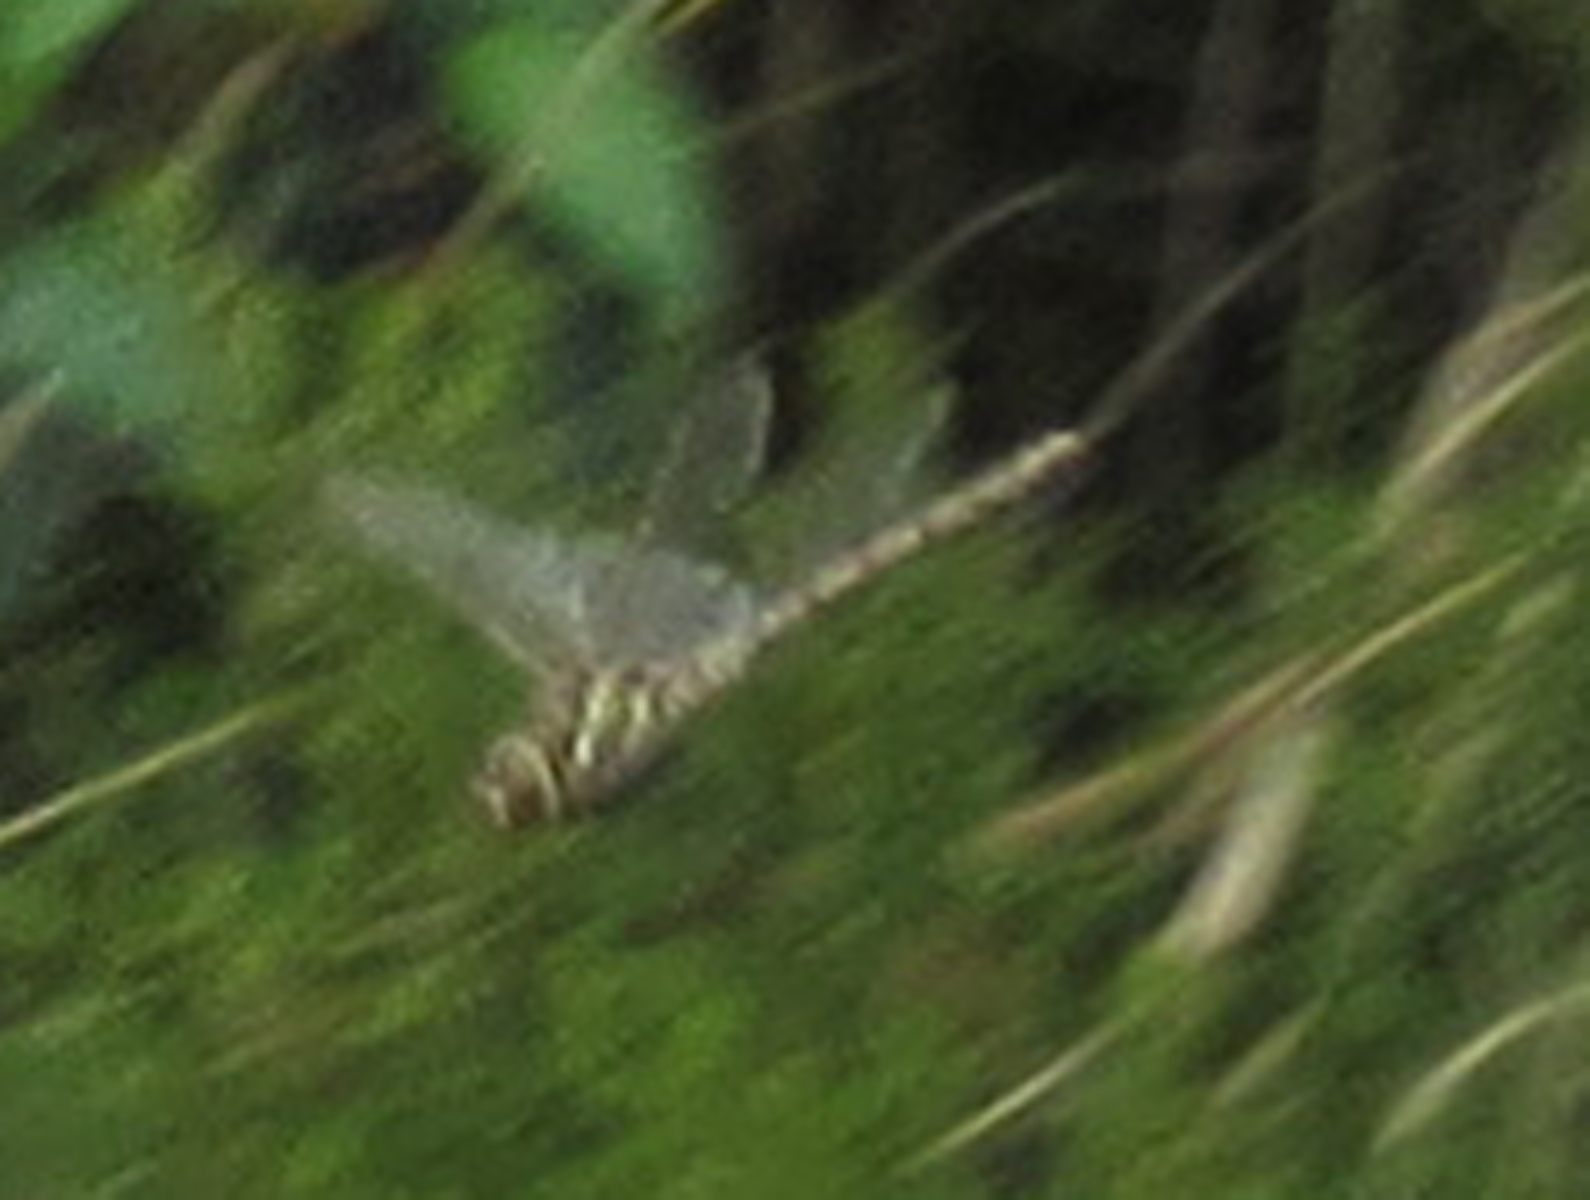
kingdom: Animalia
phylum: Arthropoda
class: Insecta
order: Odonata
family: Aeshnidae
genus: Pinheyschna
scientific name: Pinheyschna subpupillata
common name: Stream hawker
